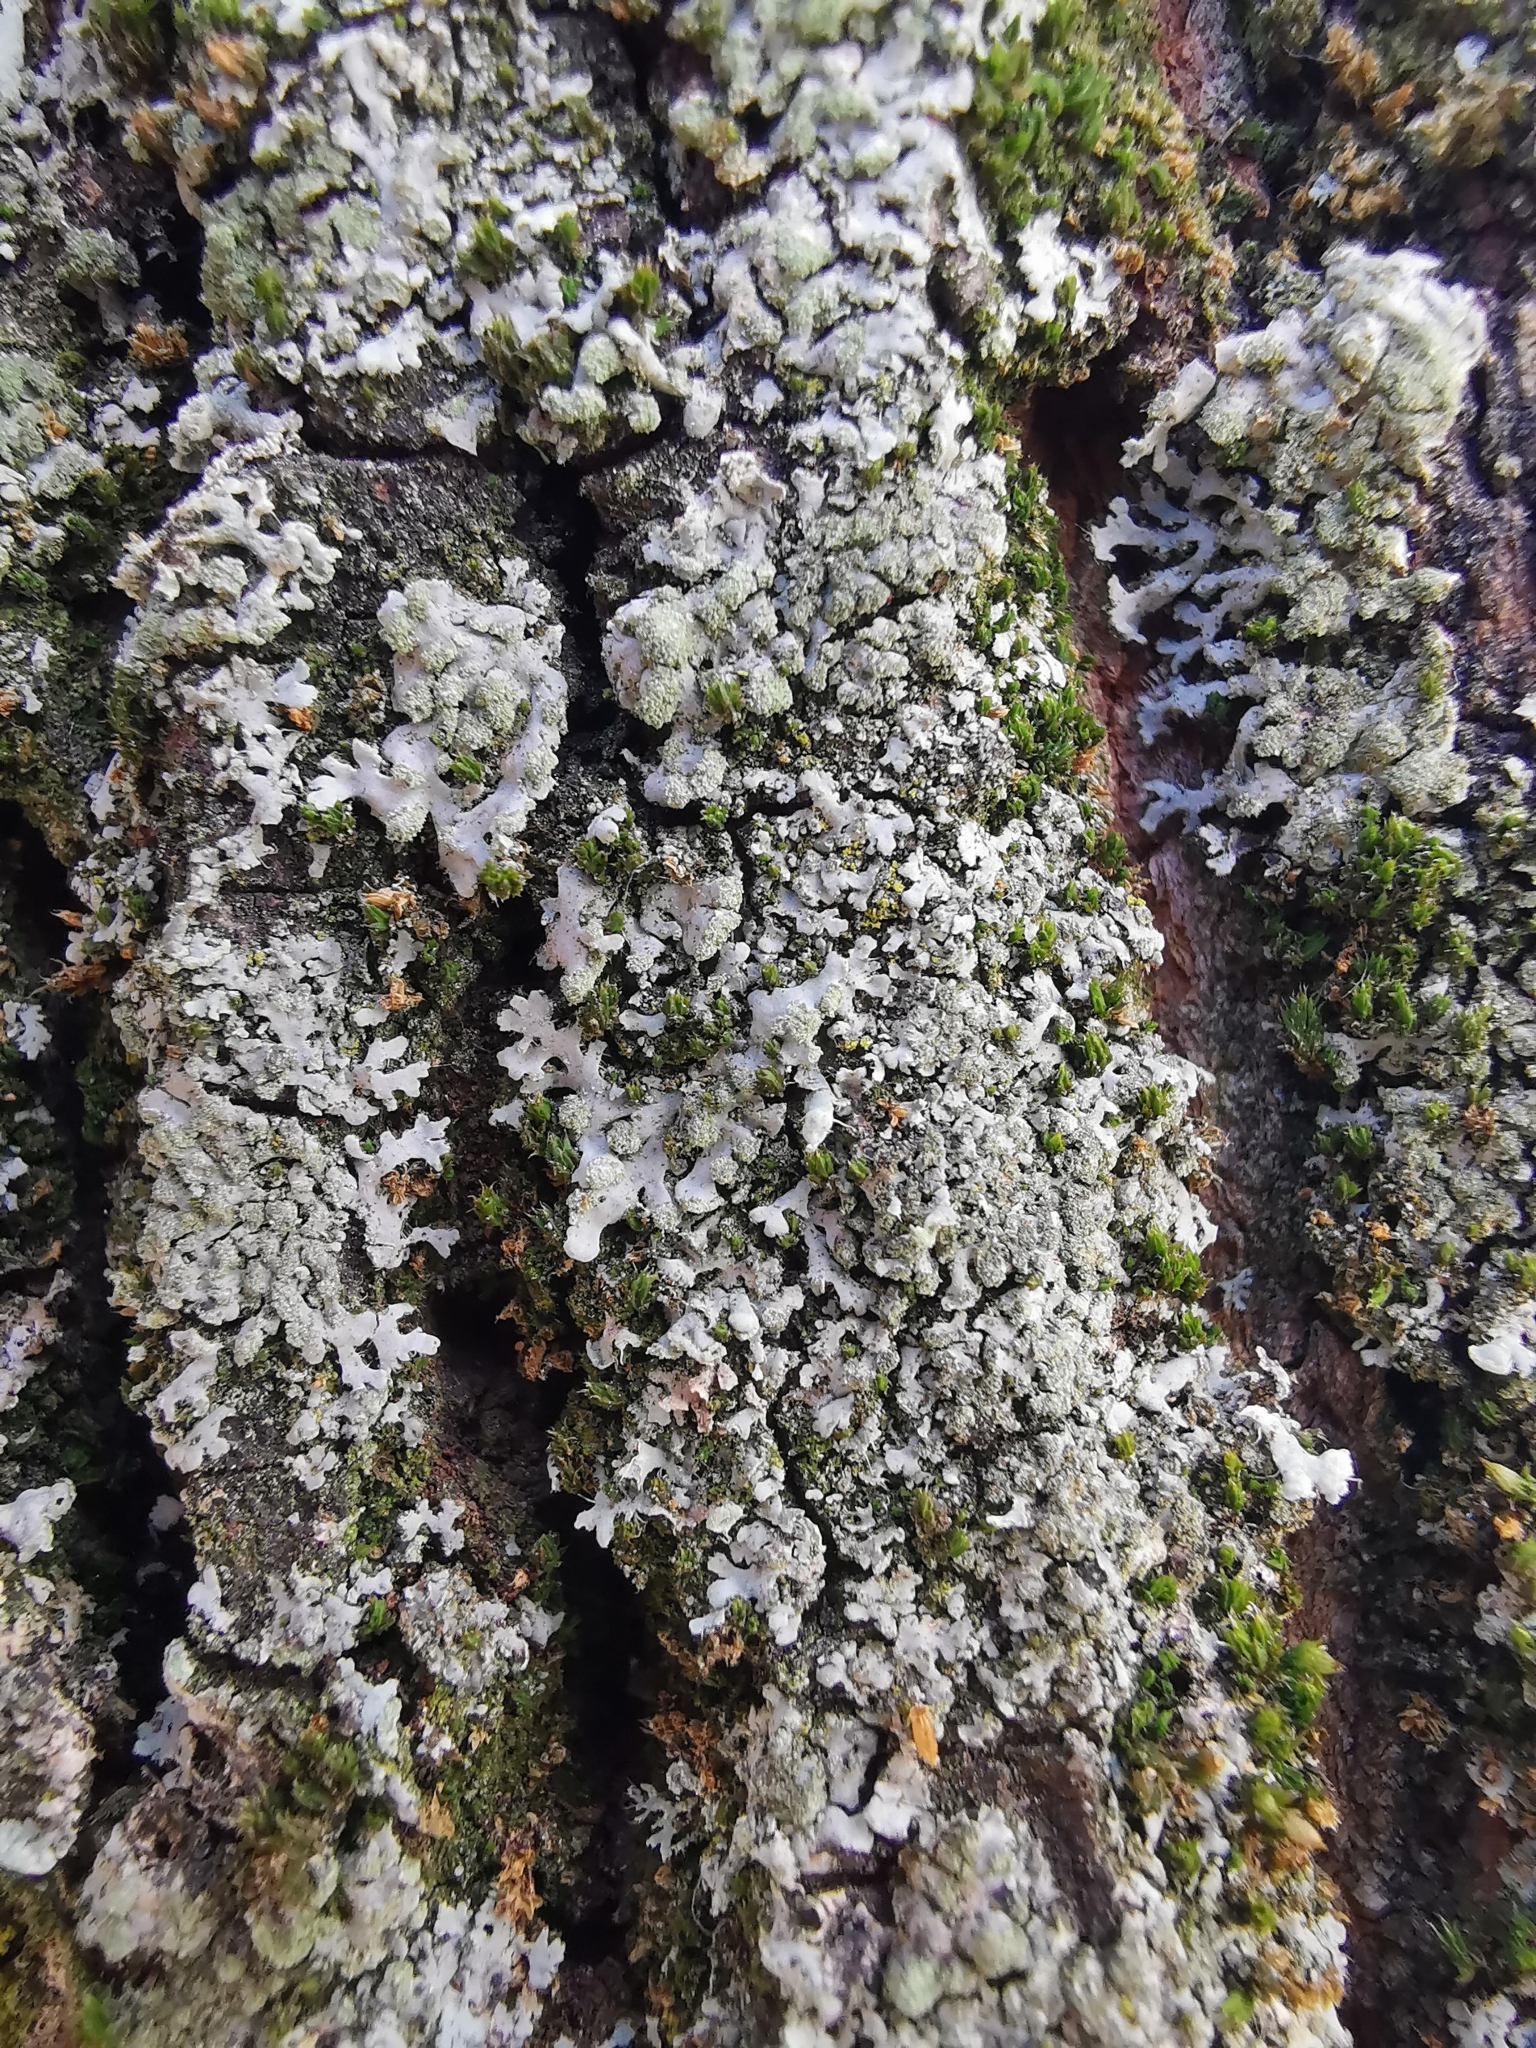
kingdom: Fungi
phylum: Ascomycota
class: Lecanoromycetes
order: Caliciales
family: Physciaceae
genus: Phaeophyscia
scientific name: Phaeophyscia orbicularis
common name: Mealy shadow lichen
